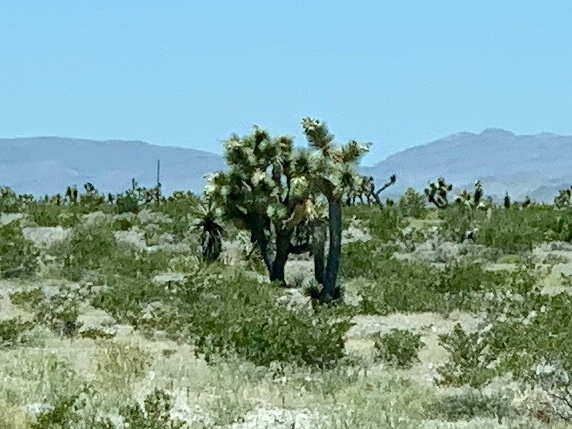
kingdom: Plantae
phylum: Tracheophyta
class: Liliopsida
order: Asparagales
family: Asparagaceae
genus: Yucca
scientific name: Yucca brevifolia
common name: Joshua tree
